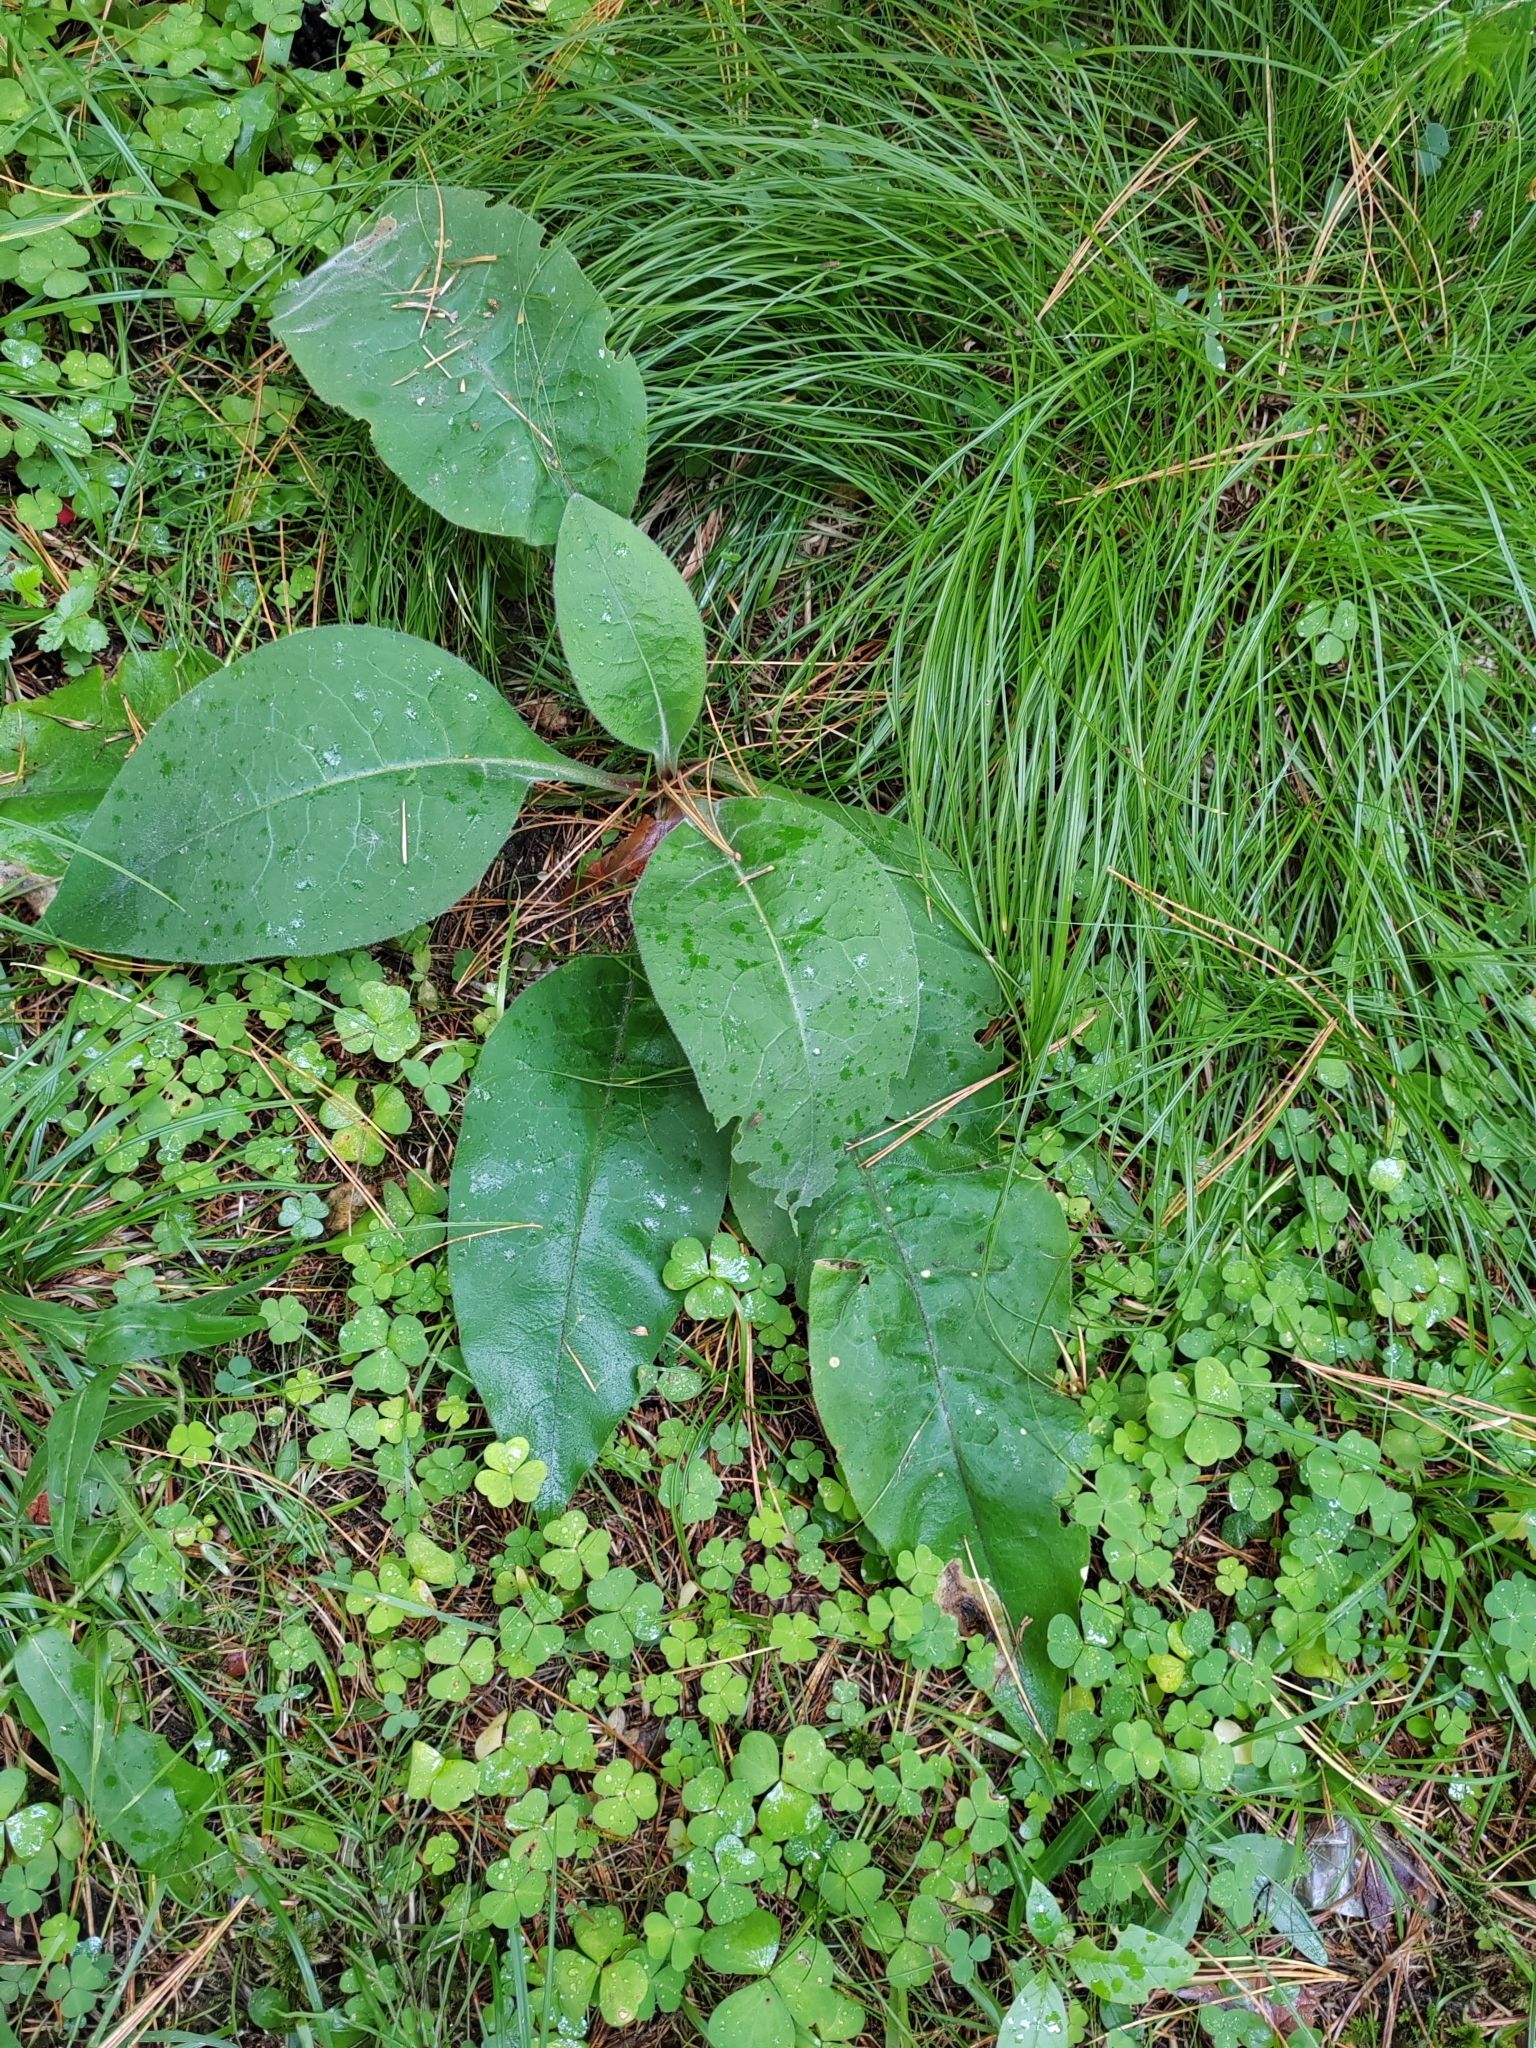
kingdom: Plantae
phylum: Tracheophyta
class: Magnoliopsida
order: Boraginales
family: Boraginaceae
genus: Pulmonaria
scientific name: Pulmonaria mollis
